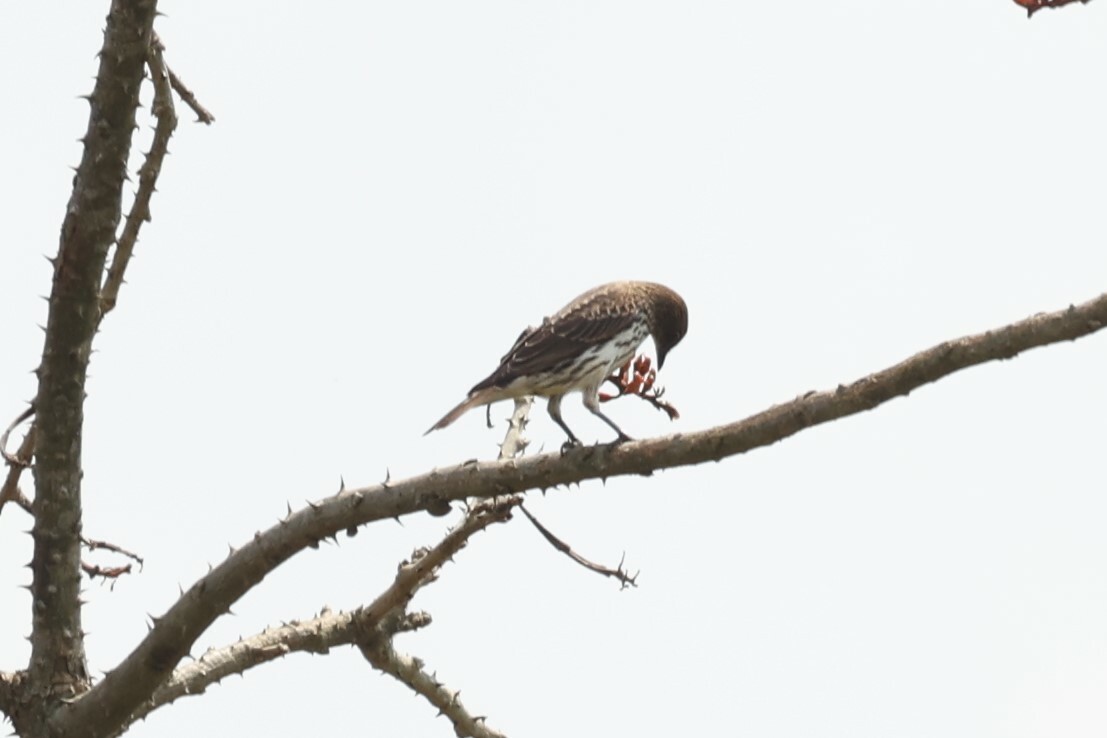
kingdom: Animalia
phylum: Chordata
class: Aves
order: Passeriformes
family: Sturnidae
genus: Cinnyricinclus
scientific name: Cinnyricinclus leucogaster
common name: Violet-backed starling
